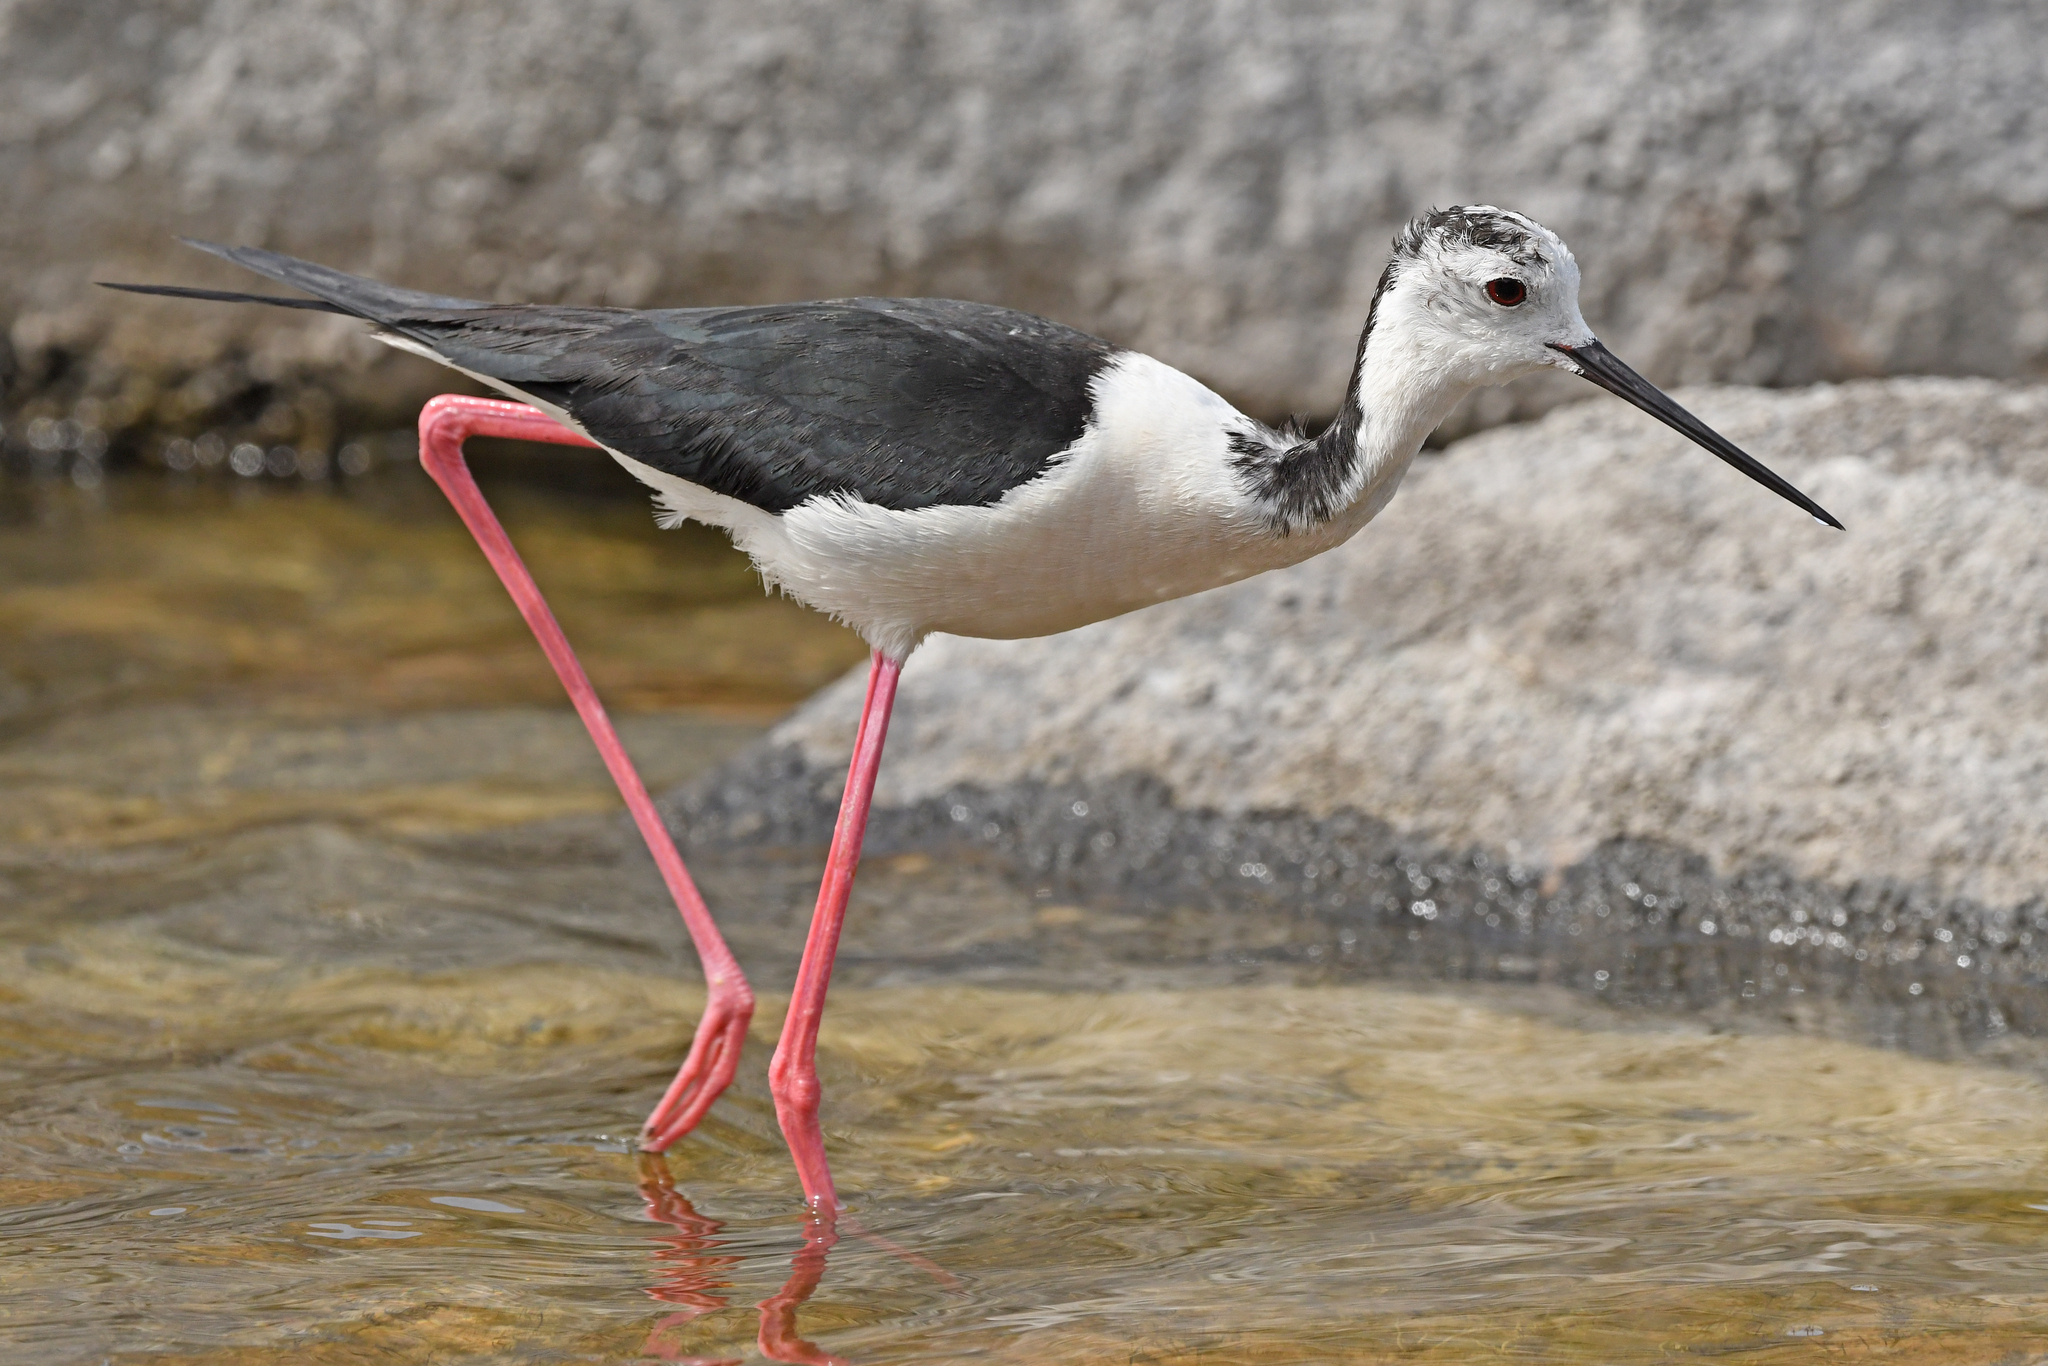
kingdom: Animalia
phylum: Chordata
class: Aves
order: Charadriiformes
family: Recurvirostridae
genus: Himantopus
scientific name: Himantopus himantopus
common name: Black-winged stilt
